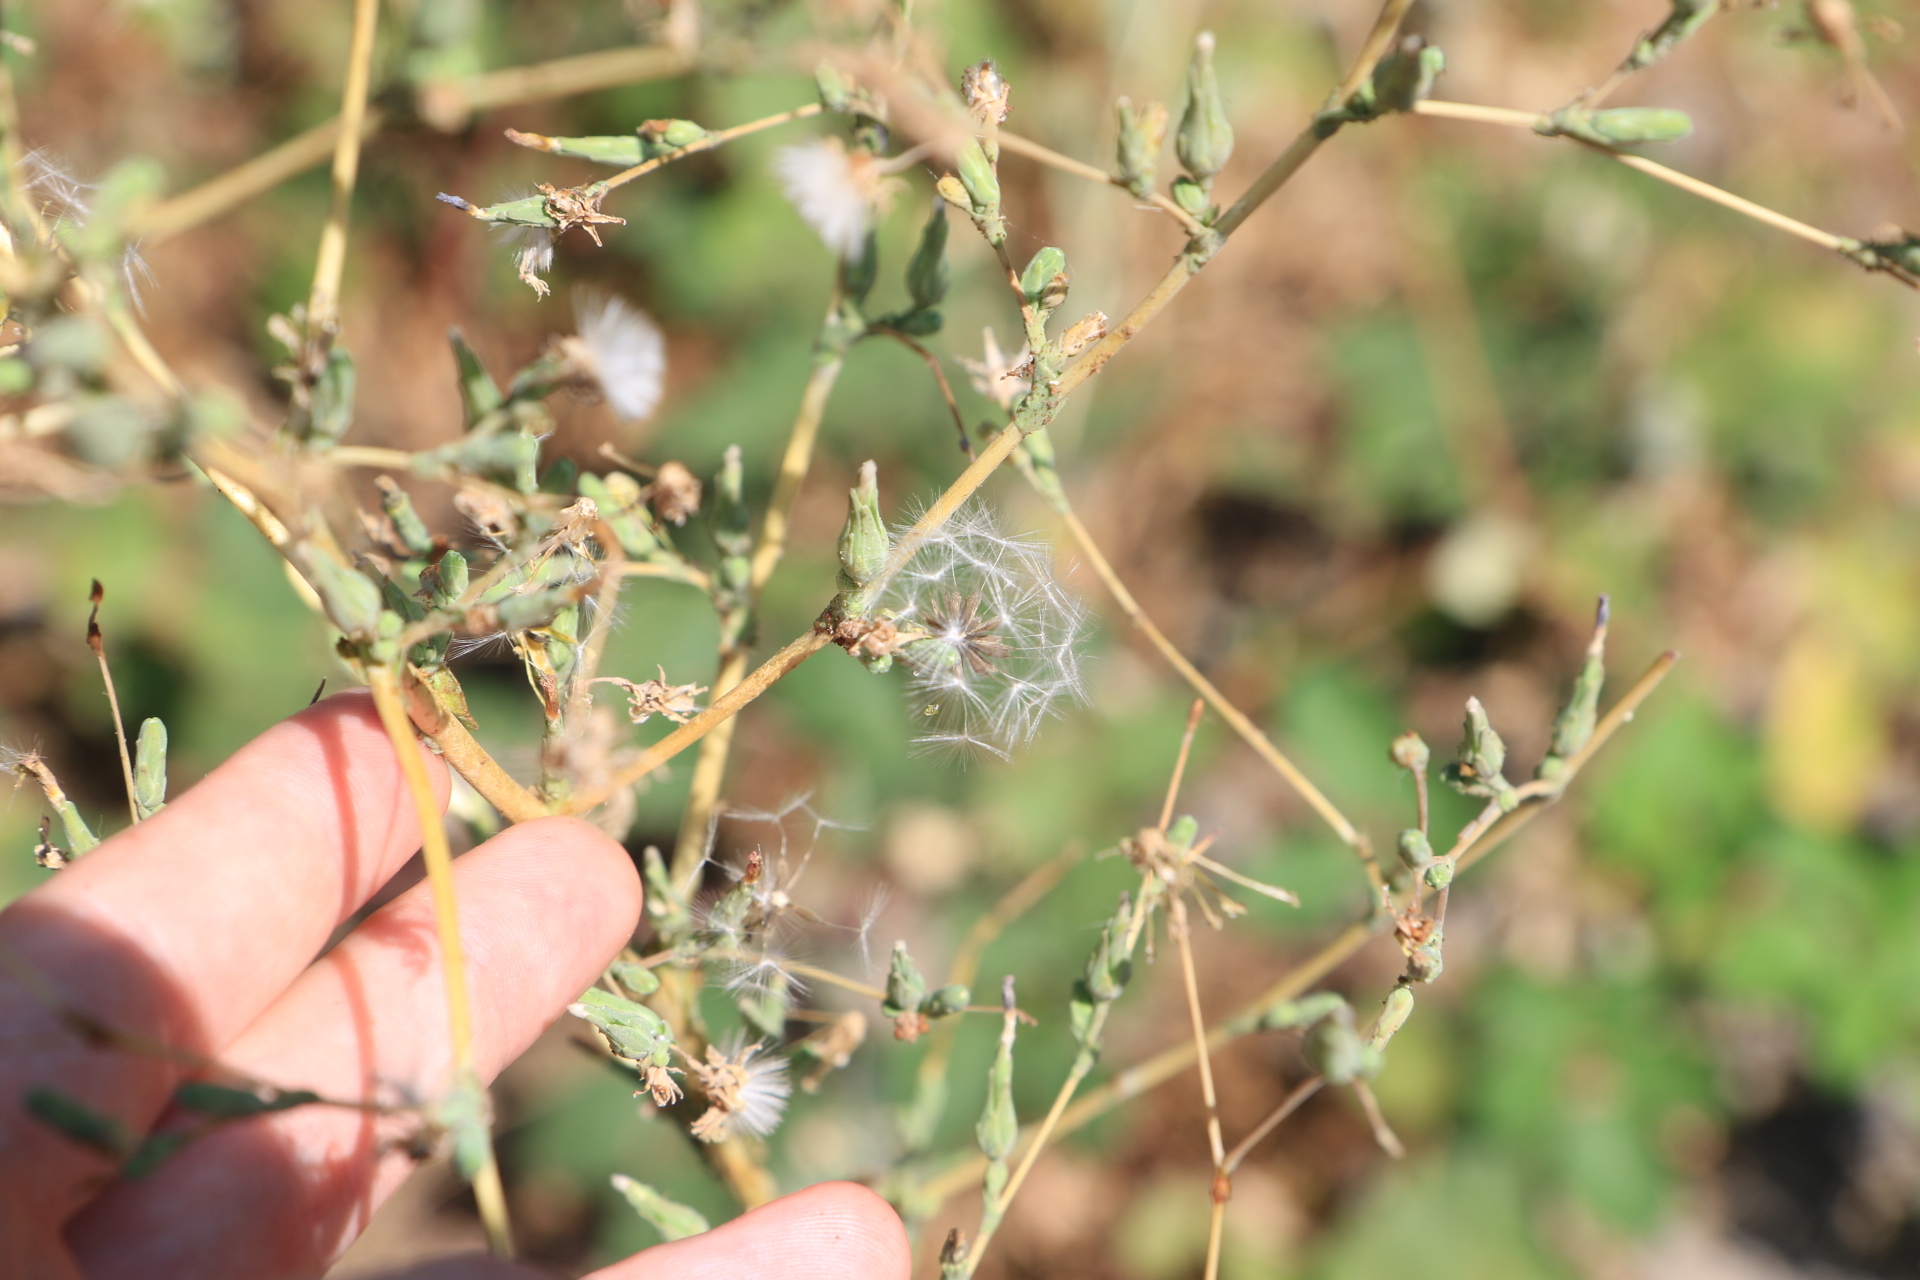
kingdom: Plantae
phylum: Tracheophyta
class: Magnoliopsida
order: Asterales
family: Asteraceae
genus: Lactuca
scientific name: Lactuca serriola
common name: Prickly lettuce
